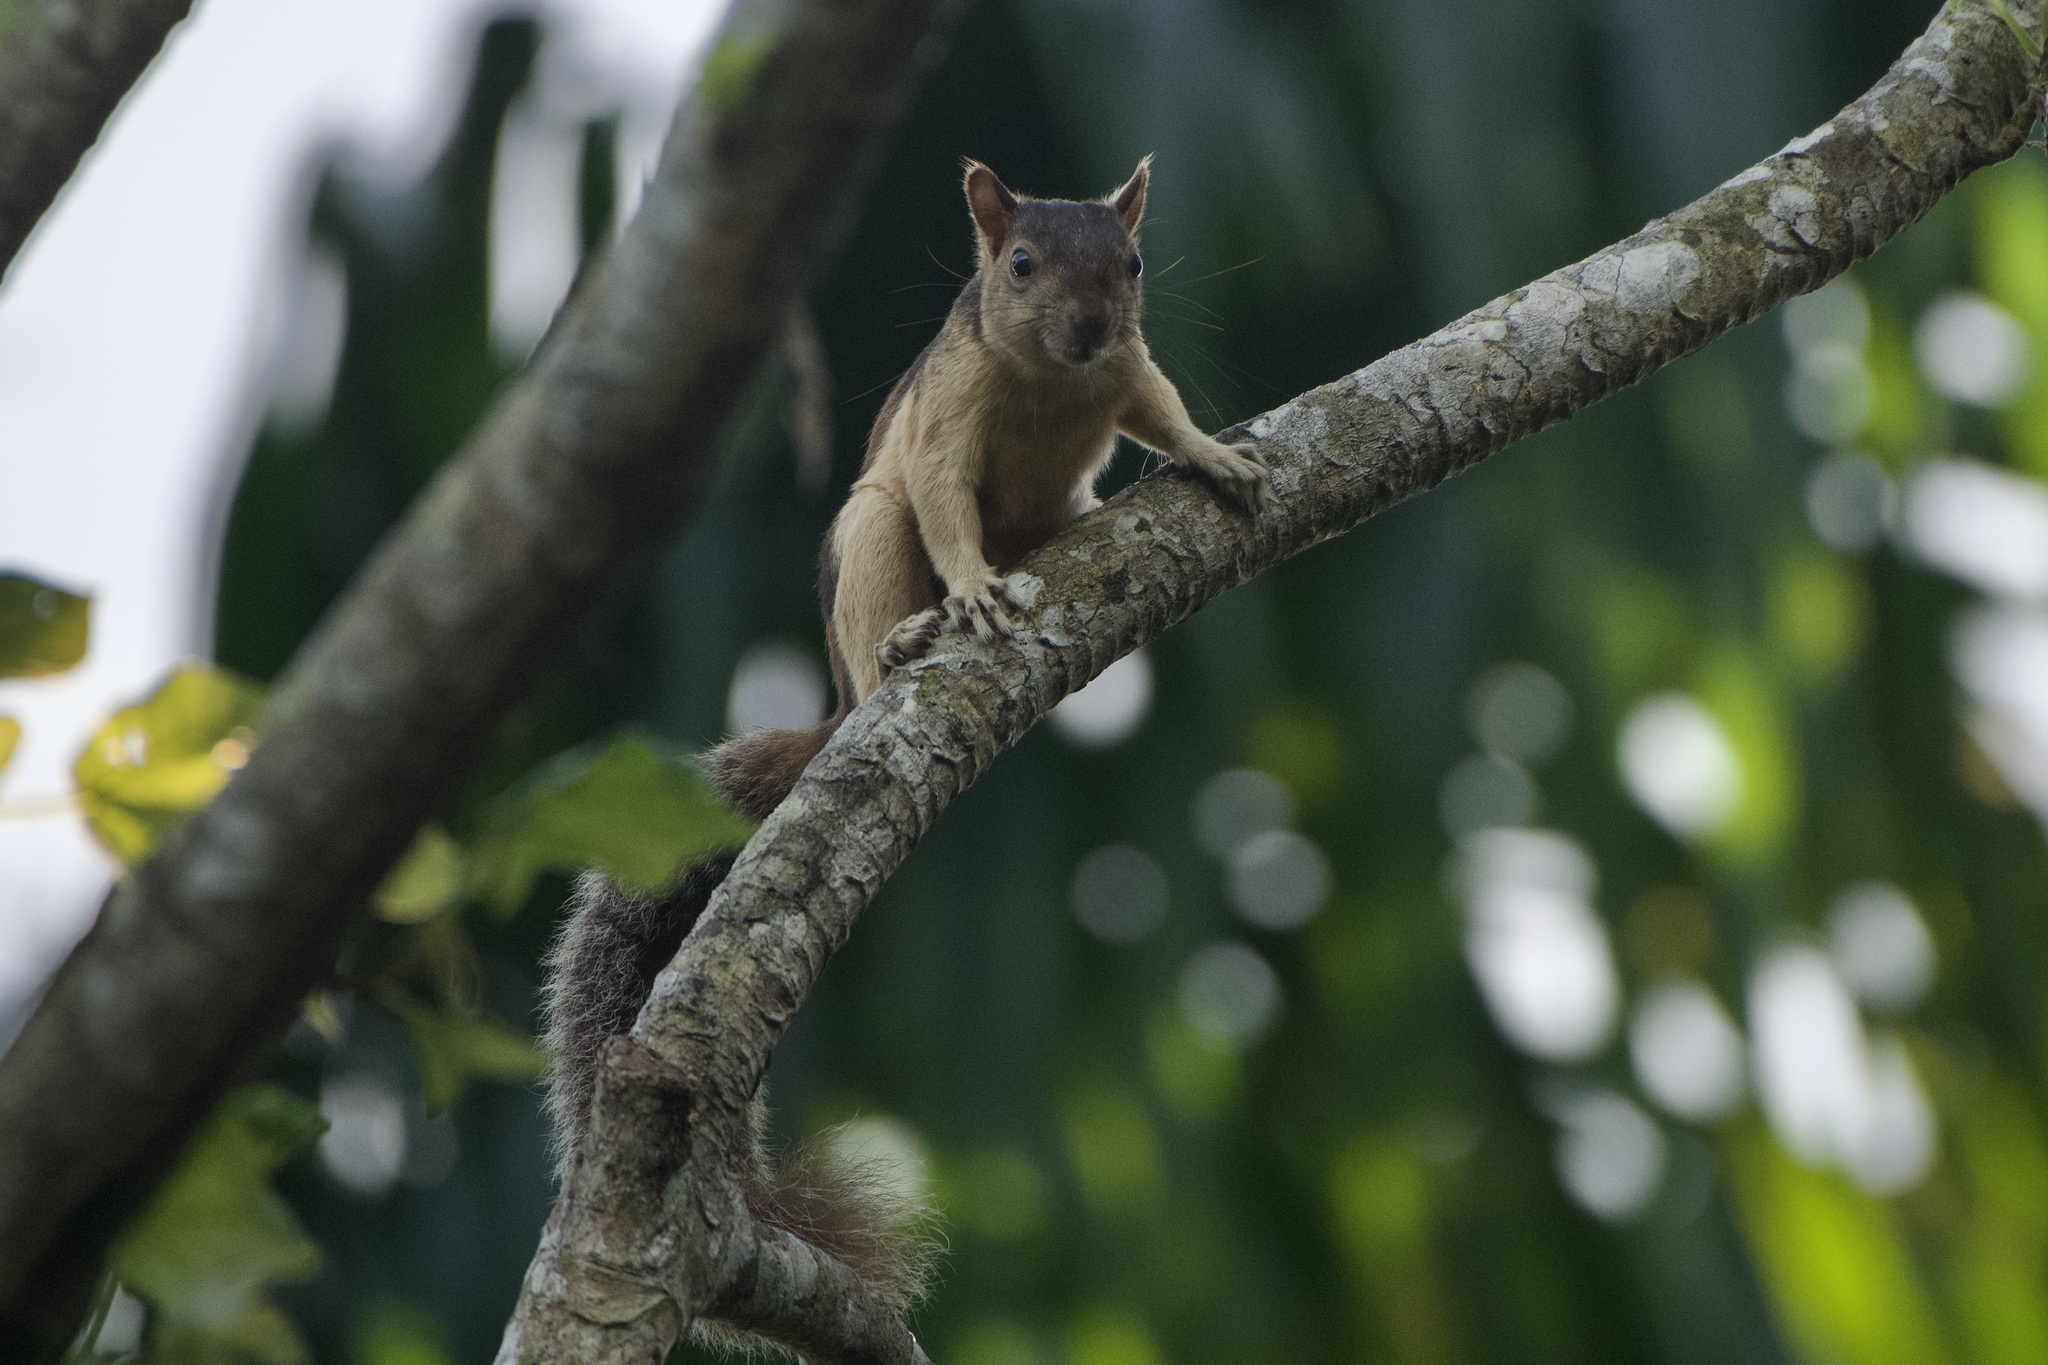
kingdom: Animalia
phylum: Chordata
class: Mammalia
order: Rodentia
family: Sciuridae
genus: Sciurus
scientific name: Sciurus variegatoides
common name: Variegated squirrel
